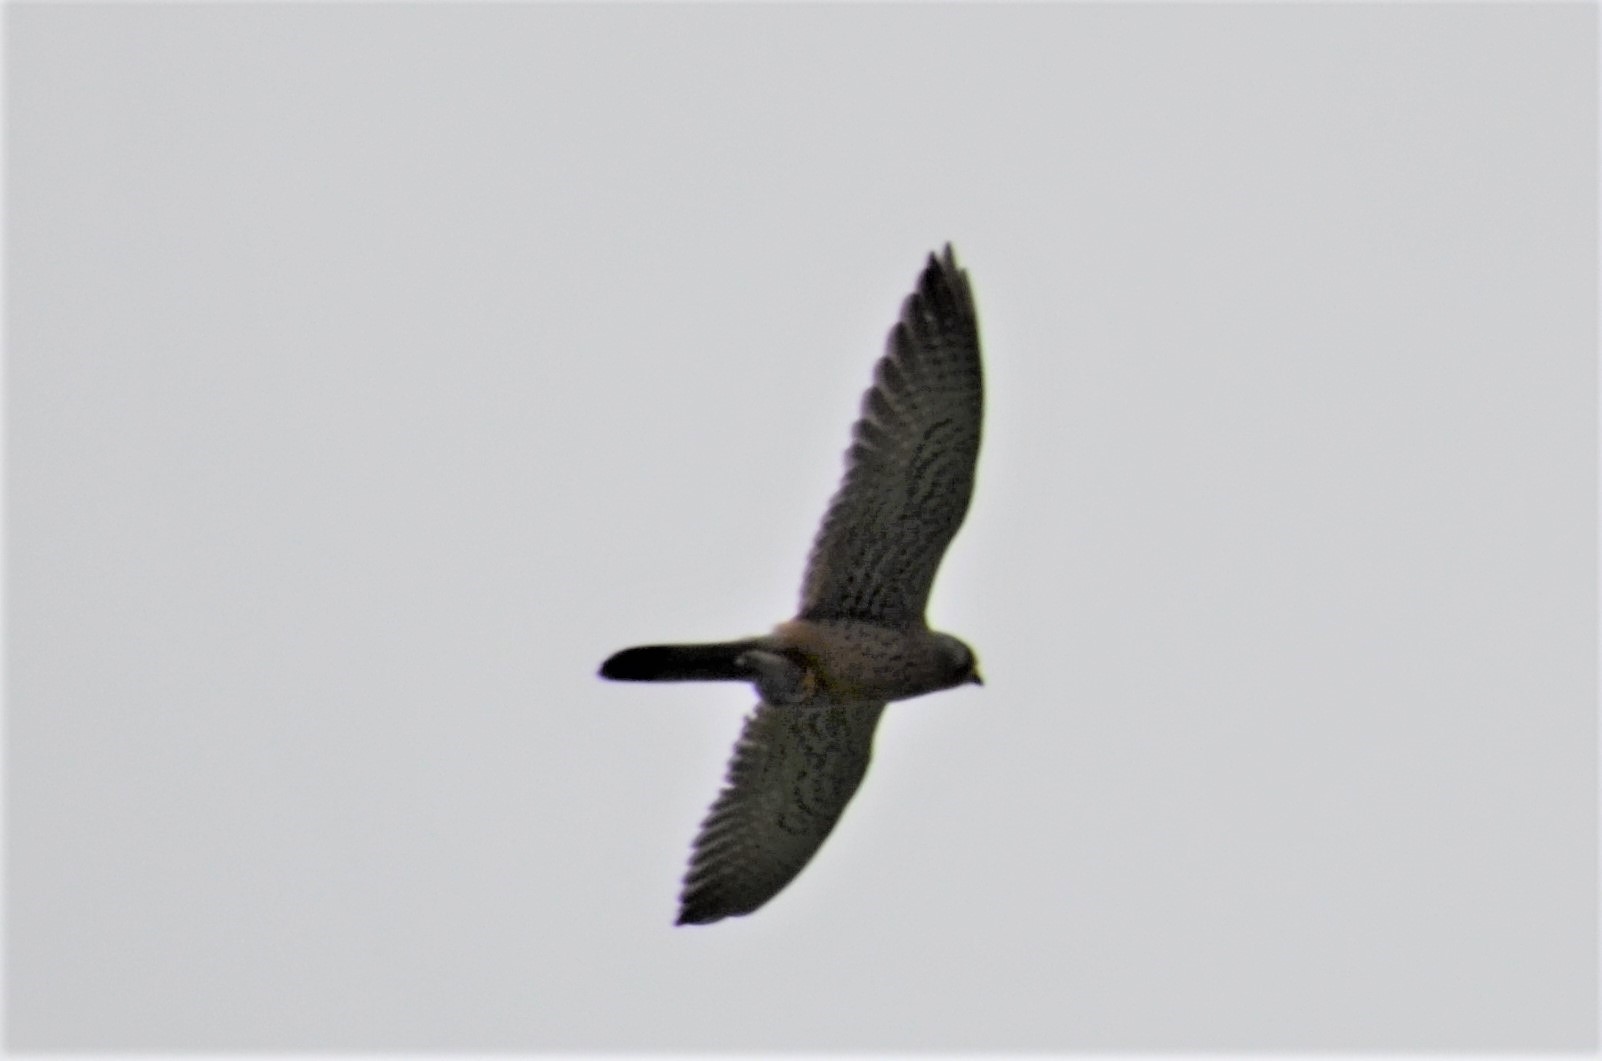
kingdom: Animalia
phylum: Chordata
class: Aves
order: Falconiformes
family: Falconidae
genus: Falco
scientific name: Falco tinnunculus
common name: Common kestrel
